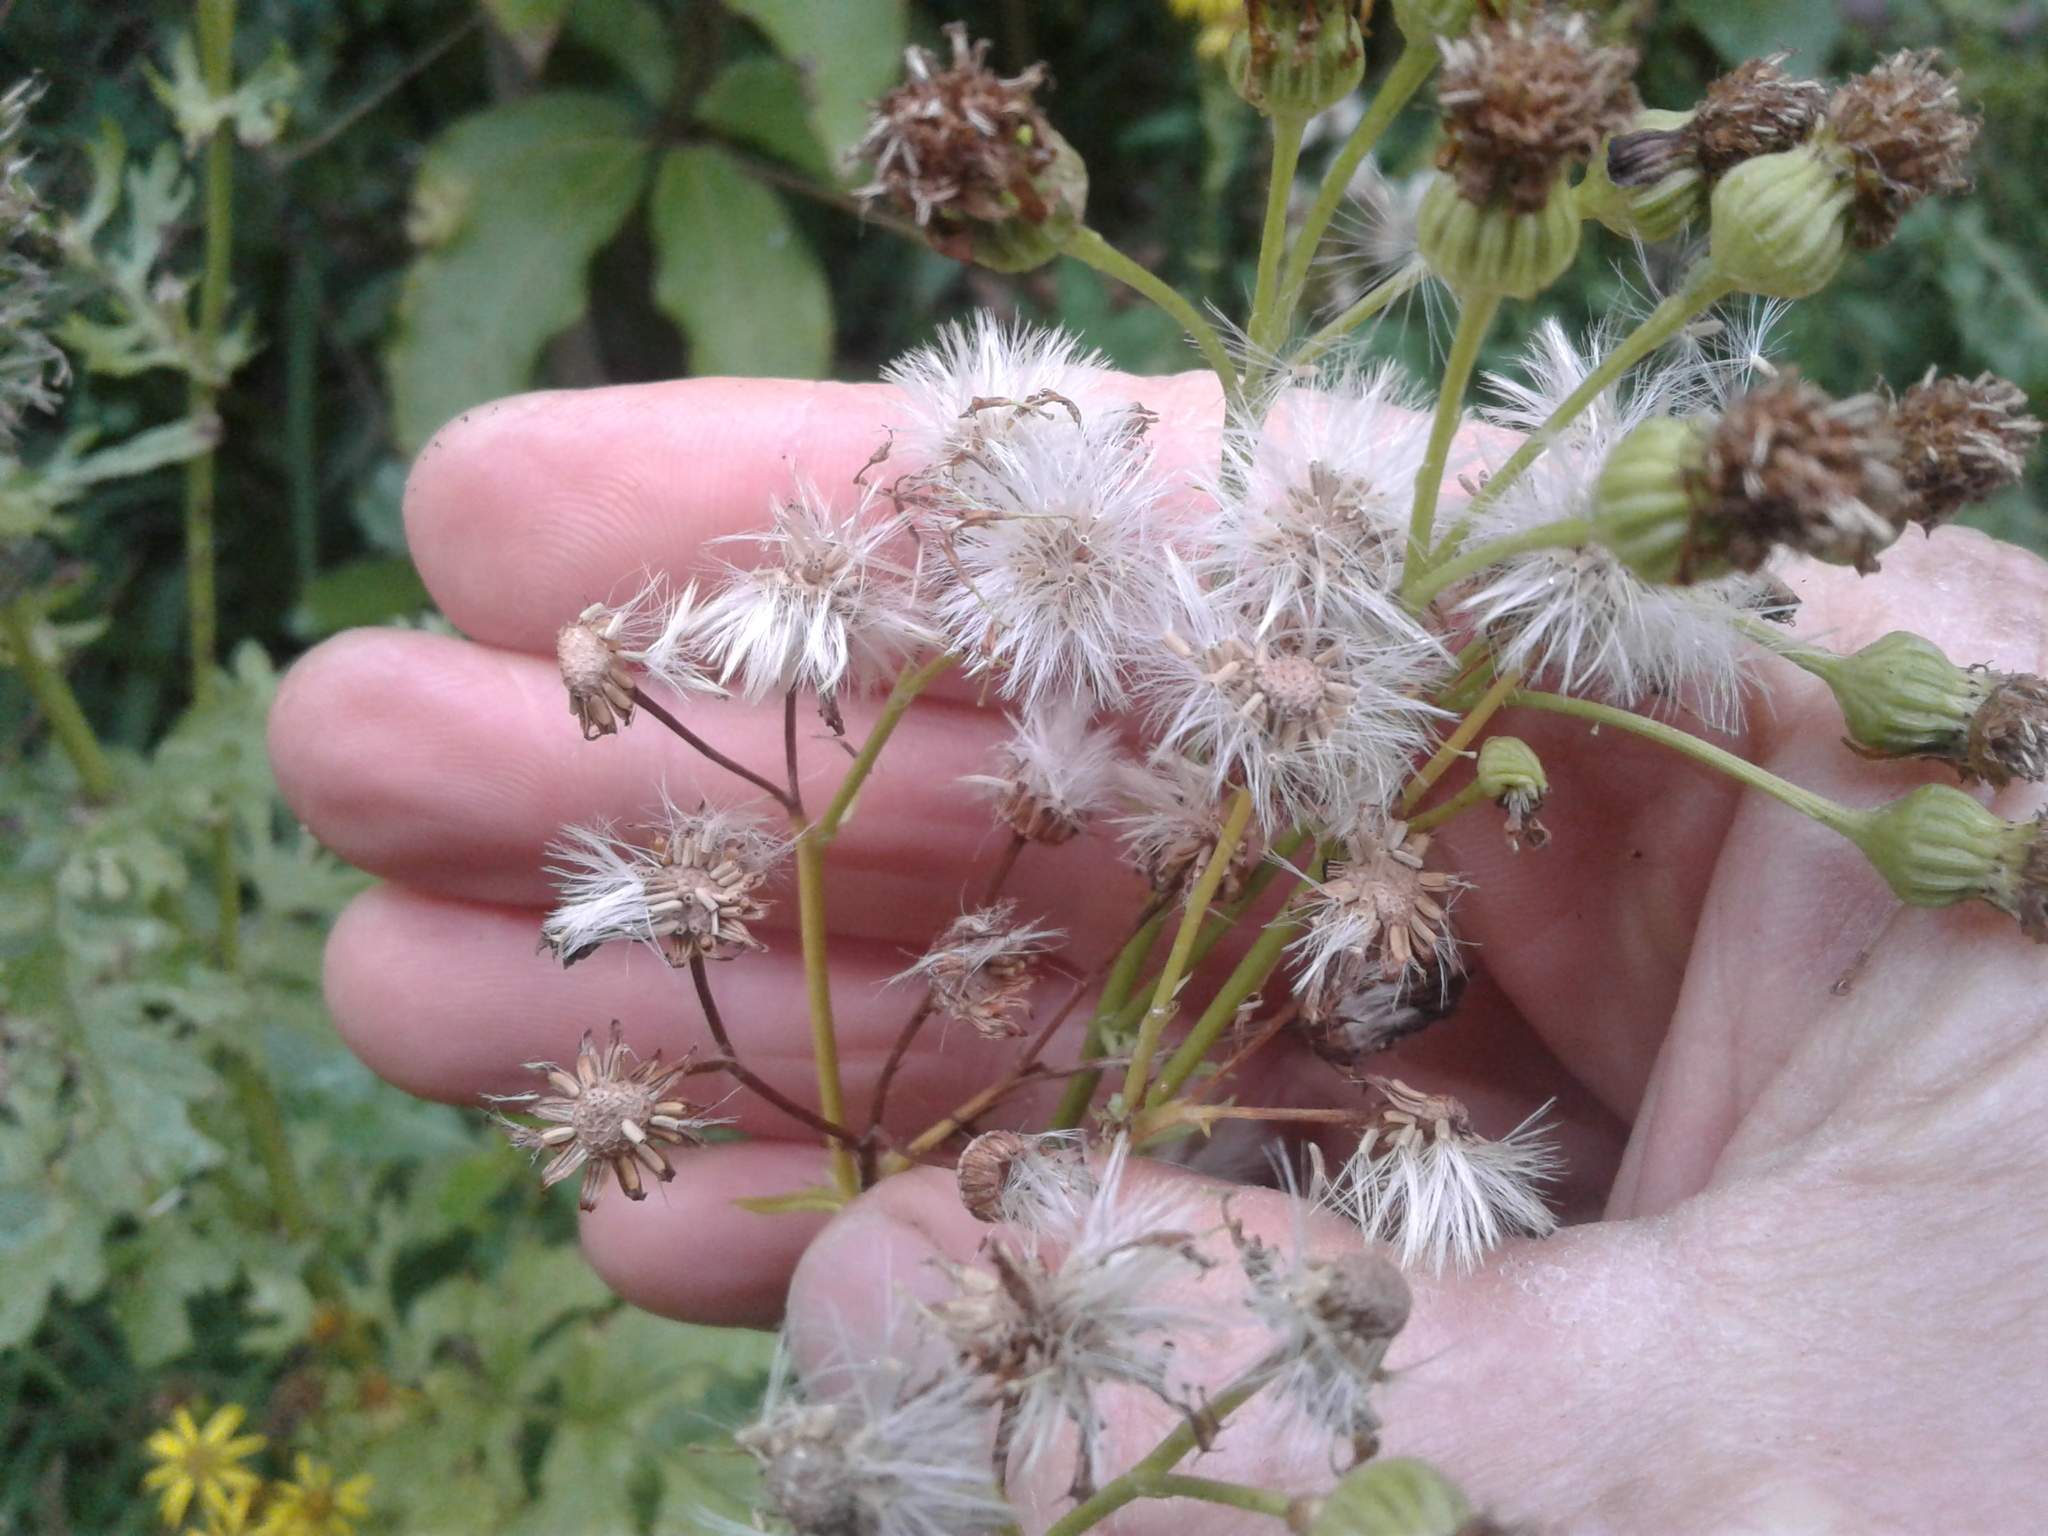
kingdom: Plantae
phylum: Tracheophyta
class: Magnoliopsida
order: Asterales
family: Asteraceae
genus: Jacobaea
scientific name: Jacobaea vulgaris
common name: Stinking willie
